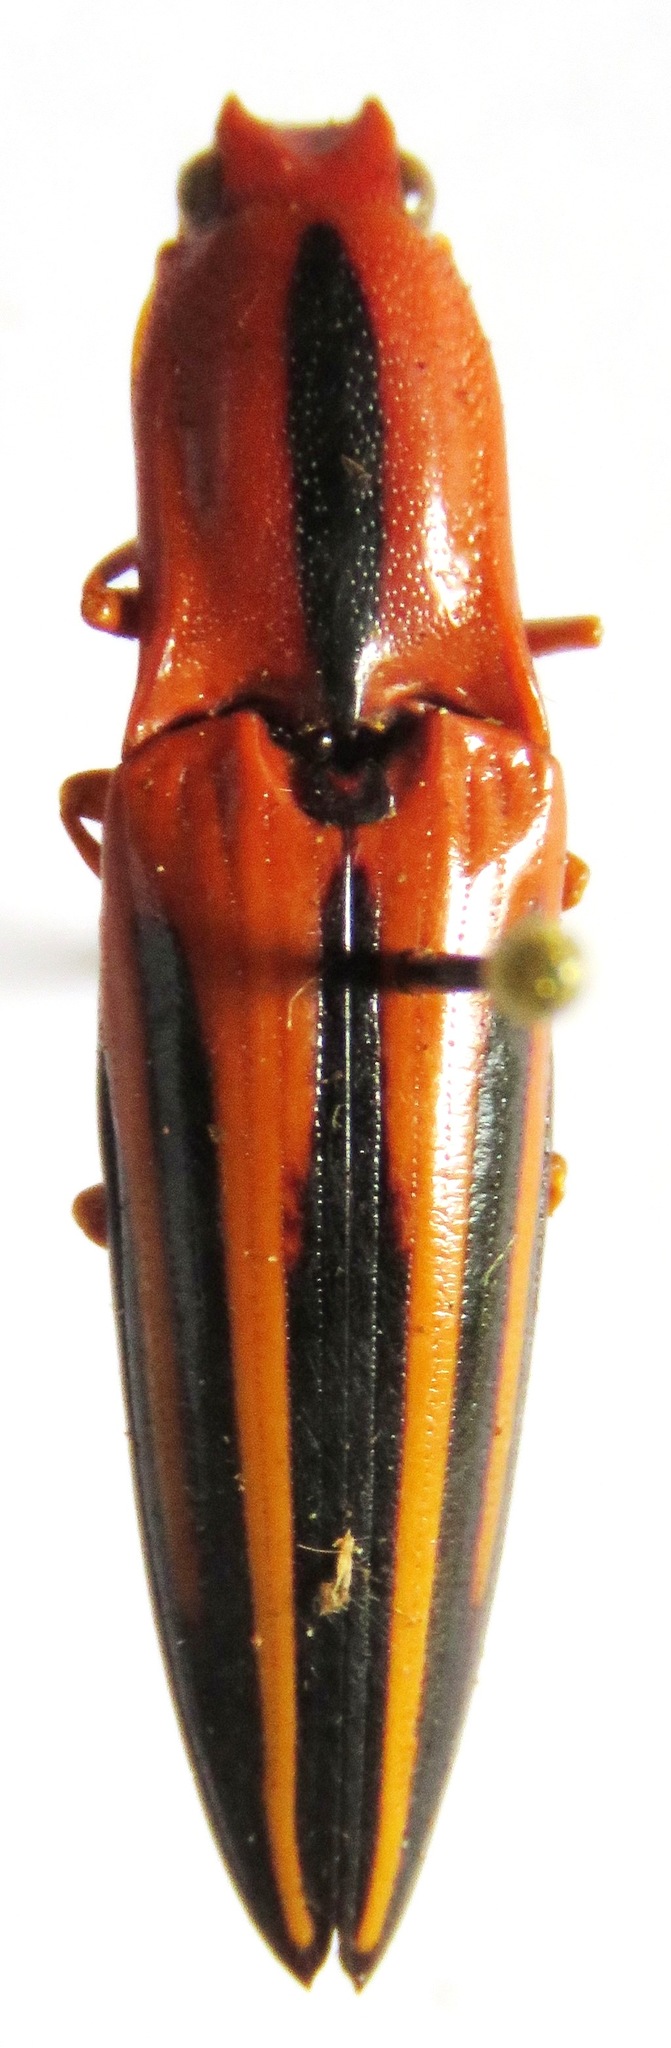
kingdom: Animalia
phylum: Arthropoda
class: Insecta
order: Coleoptera
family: Elateridae
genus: Semiotus
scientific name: Semiotus furcatus
